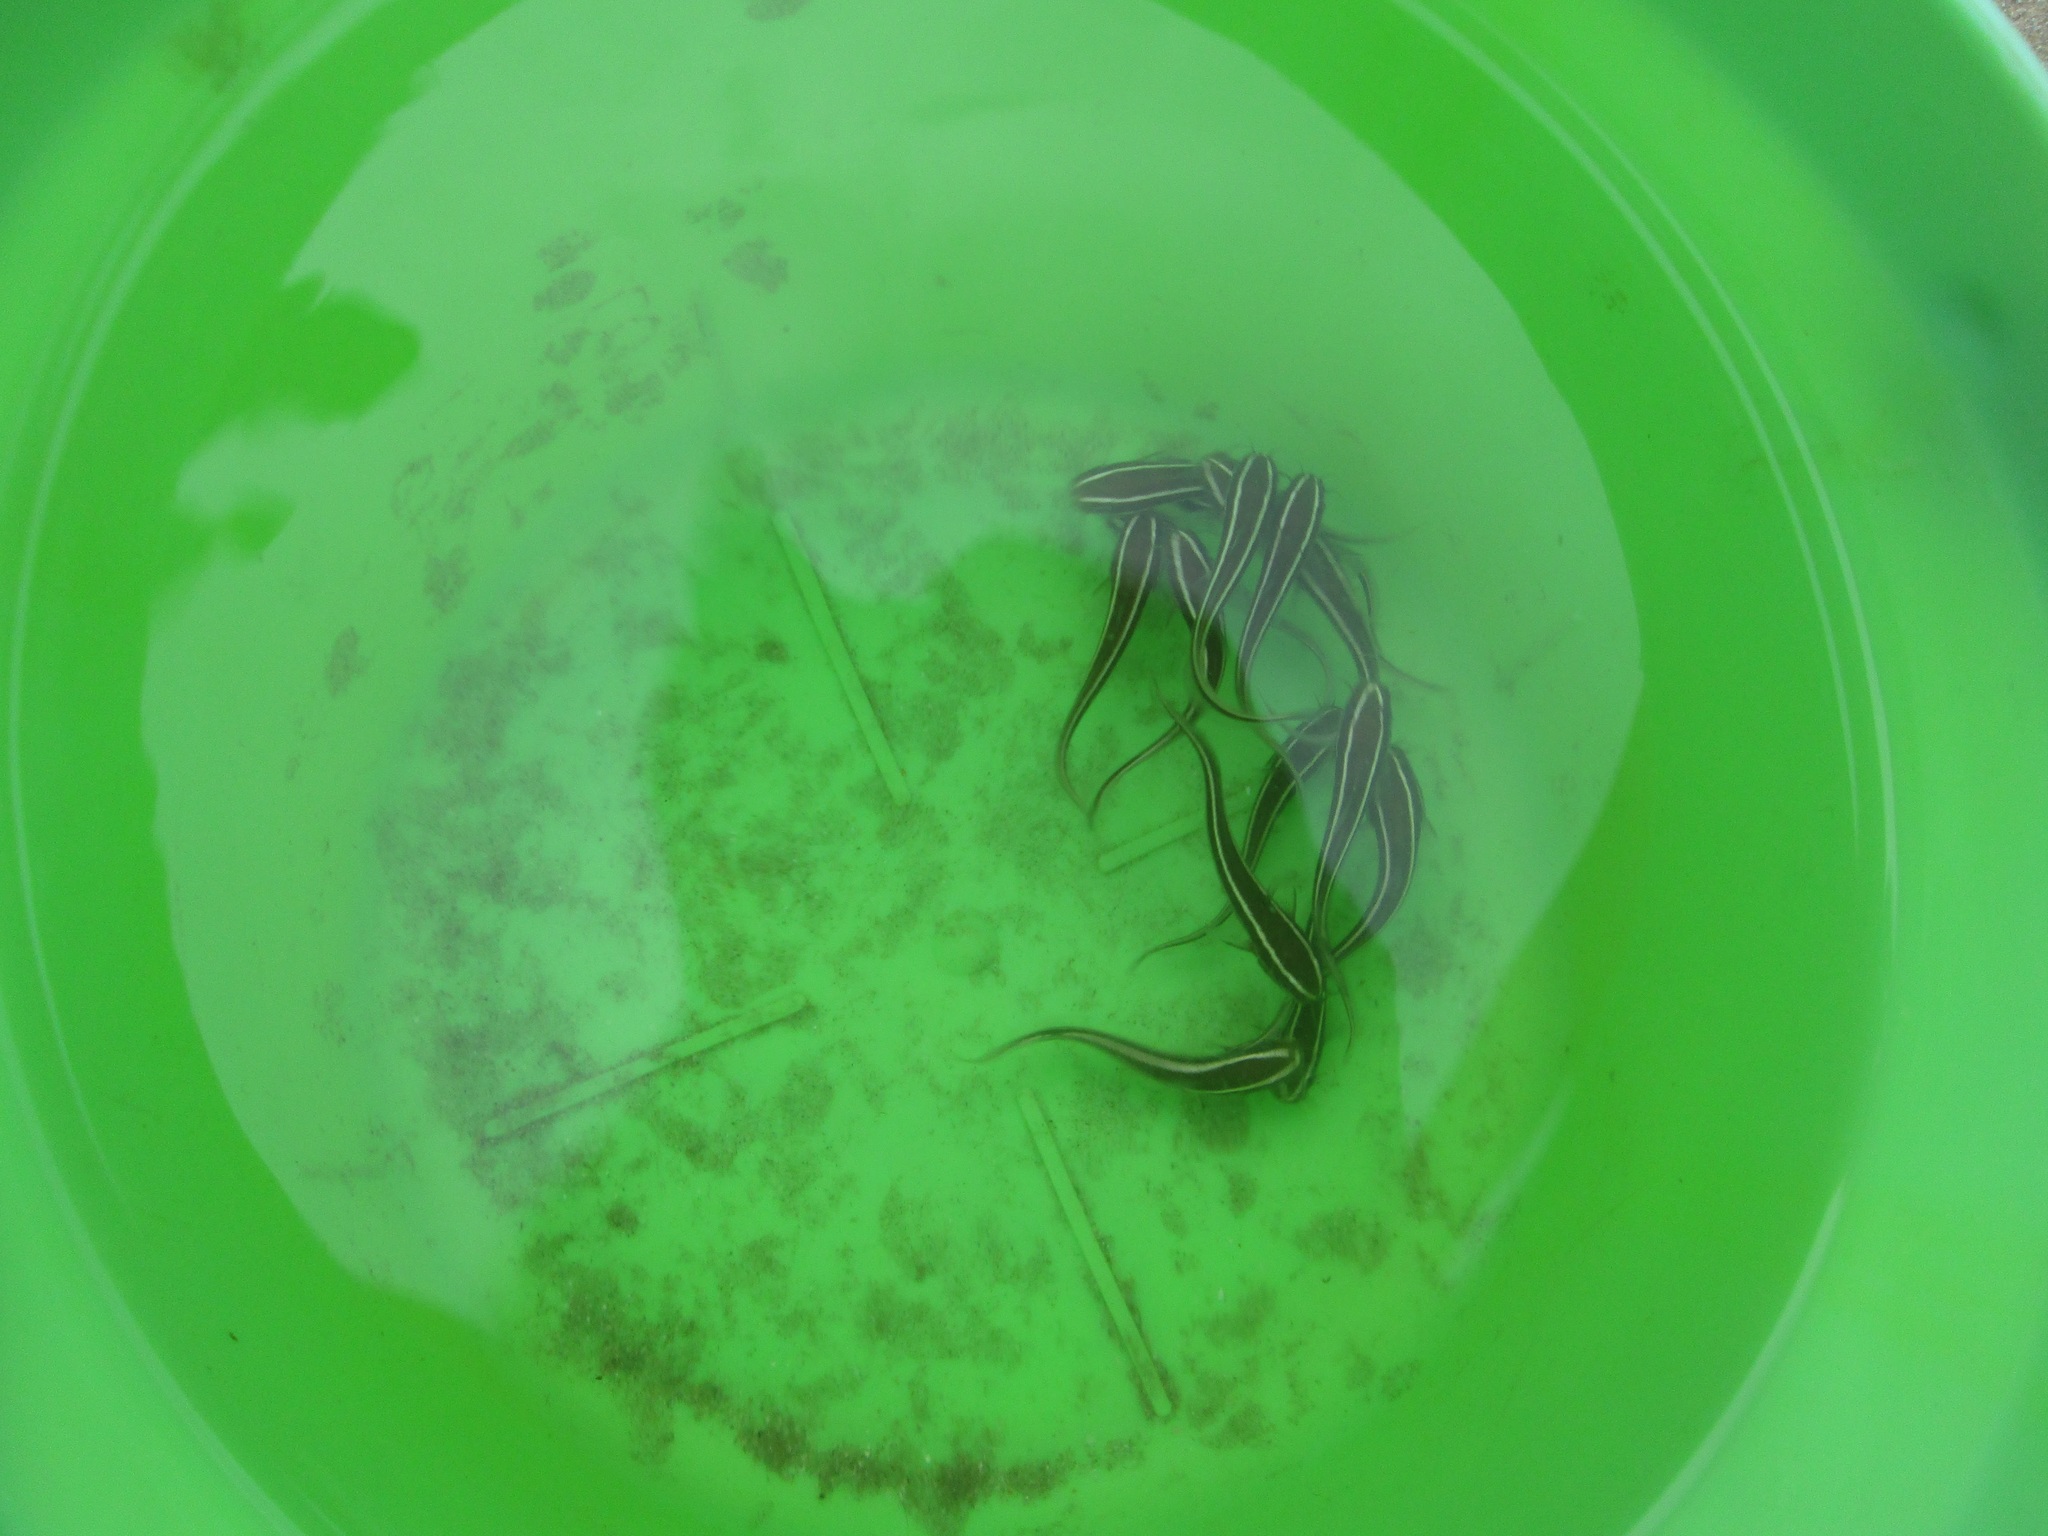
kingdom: Animalia
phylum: Chordata
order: Siluriformes
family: Plotosidae
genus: Plotosus
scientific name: Plotosus lineatus
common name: Striped eel catfish
